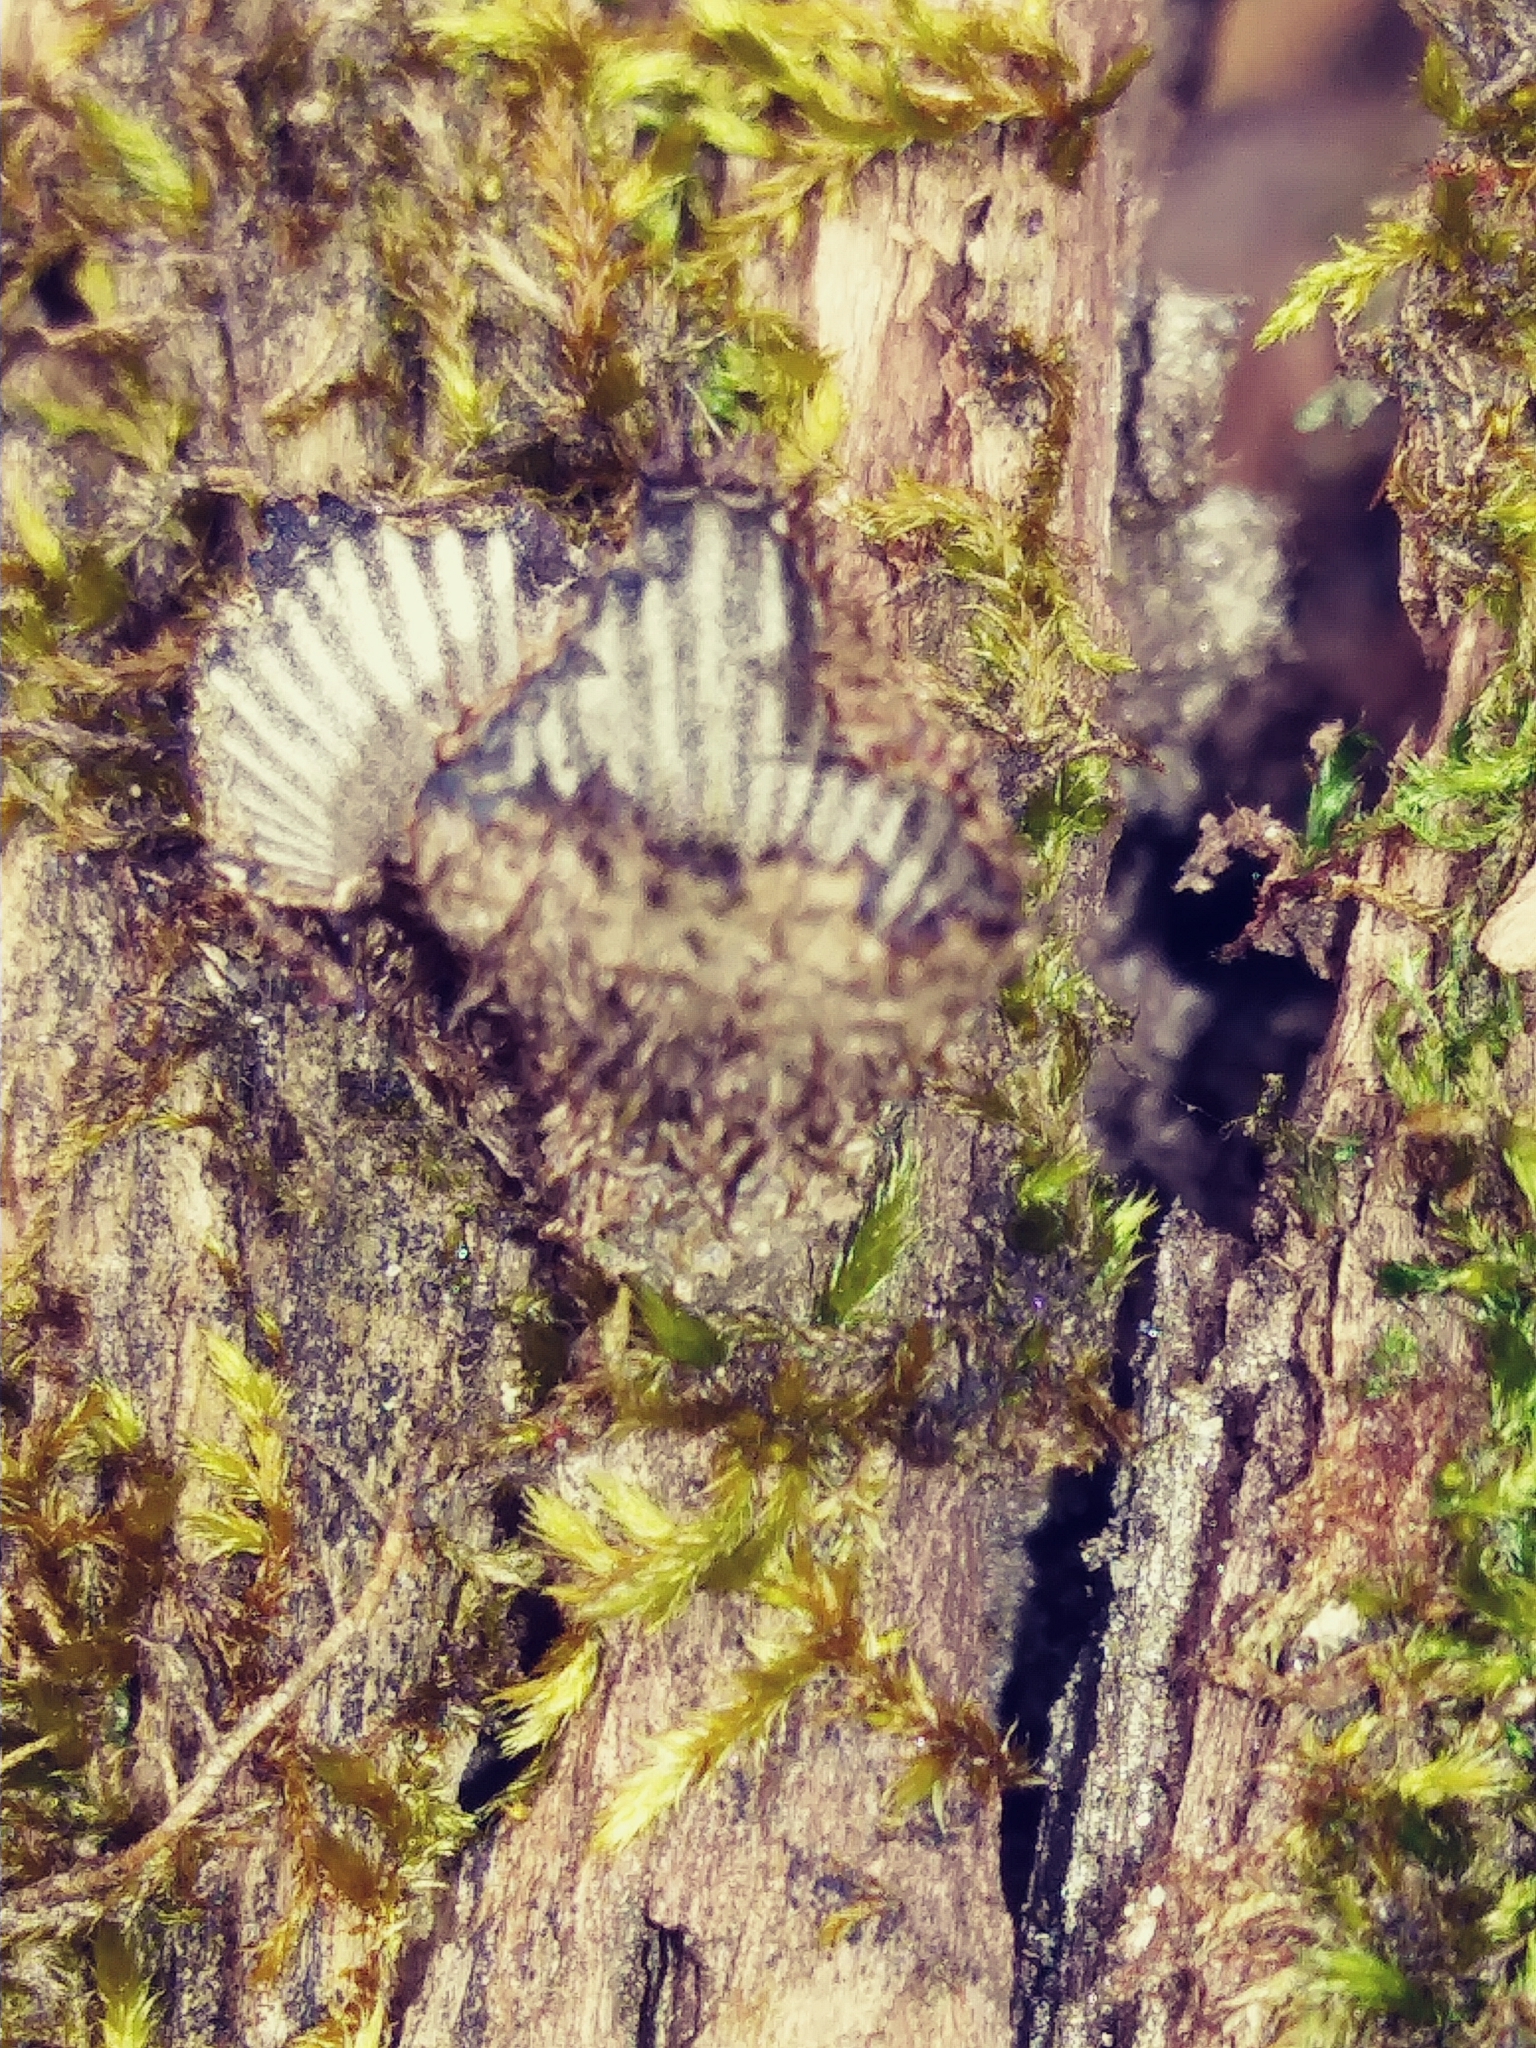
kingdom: Fungi
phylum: Basidiomycota
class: Agaricomycetes
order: Agaricales
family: Agaricaceae
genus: Cyathus
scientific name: Cyathus striatus
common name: Fluted bird's nest
